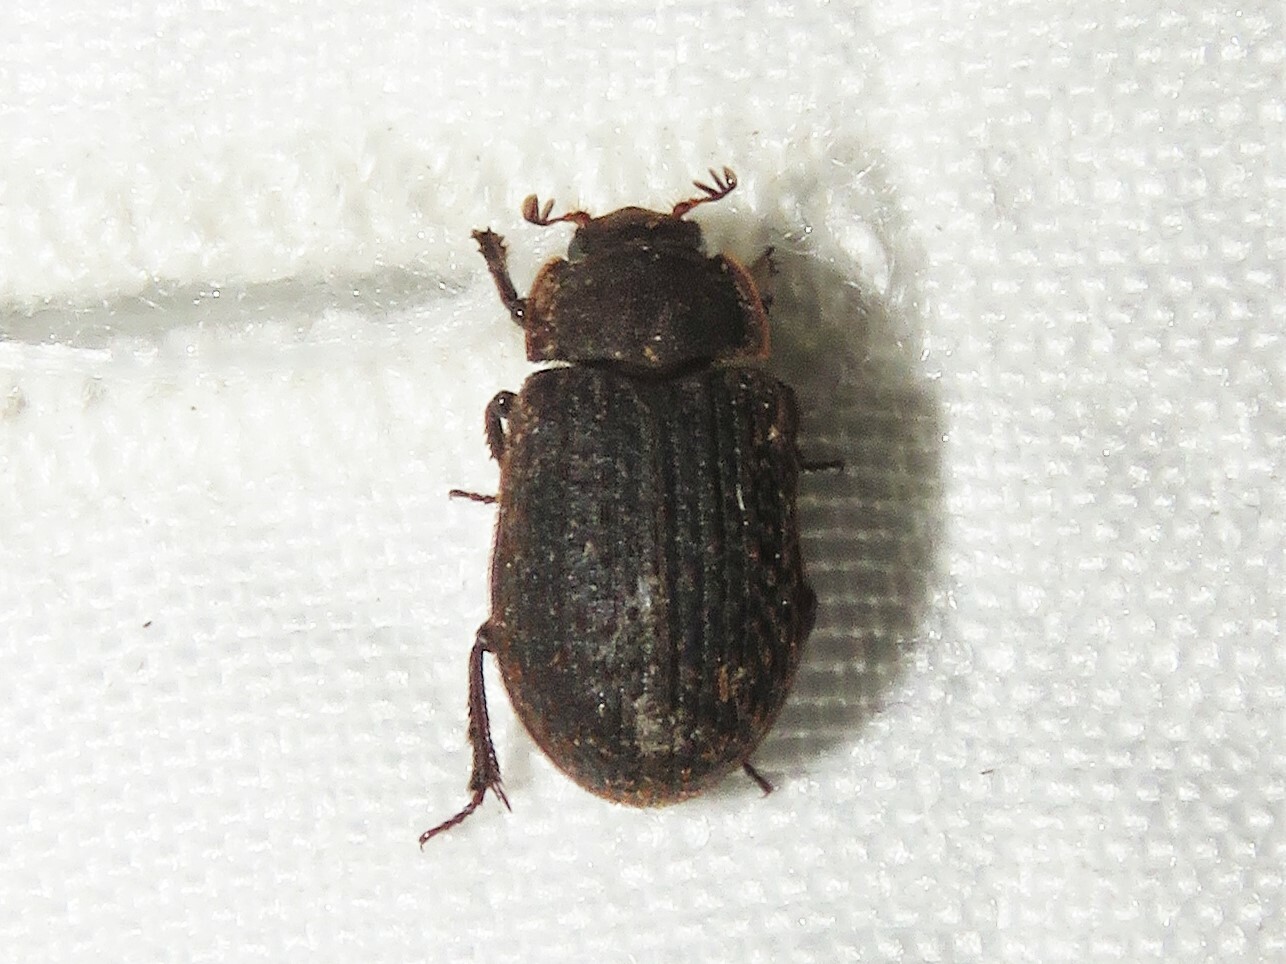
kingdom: Animalia
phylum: Arthropoda
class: Insecta
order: Coleoptera
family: Trogidae
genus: Trox
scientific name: Trox aequalis
